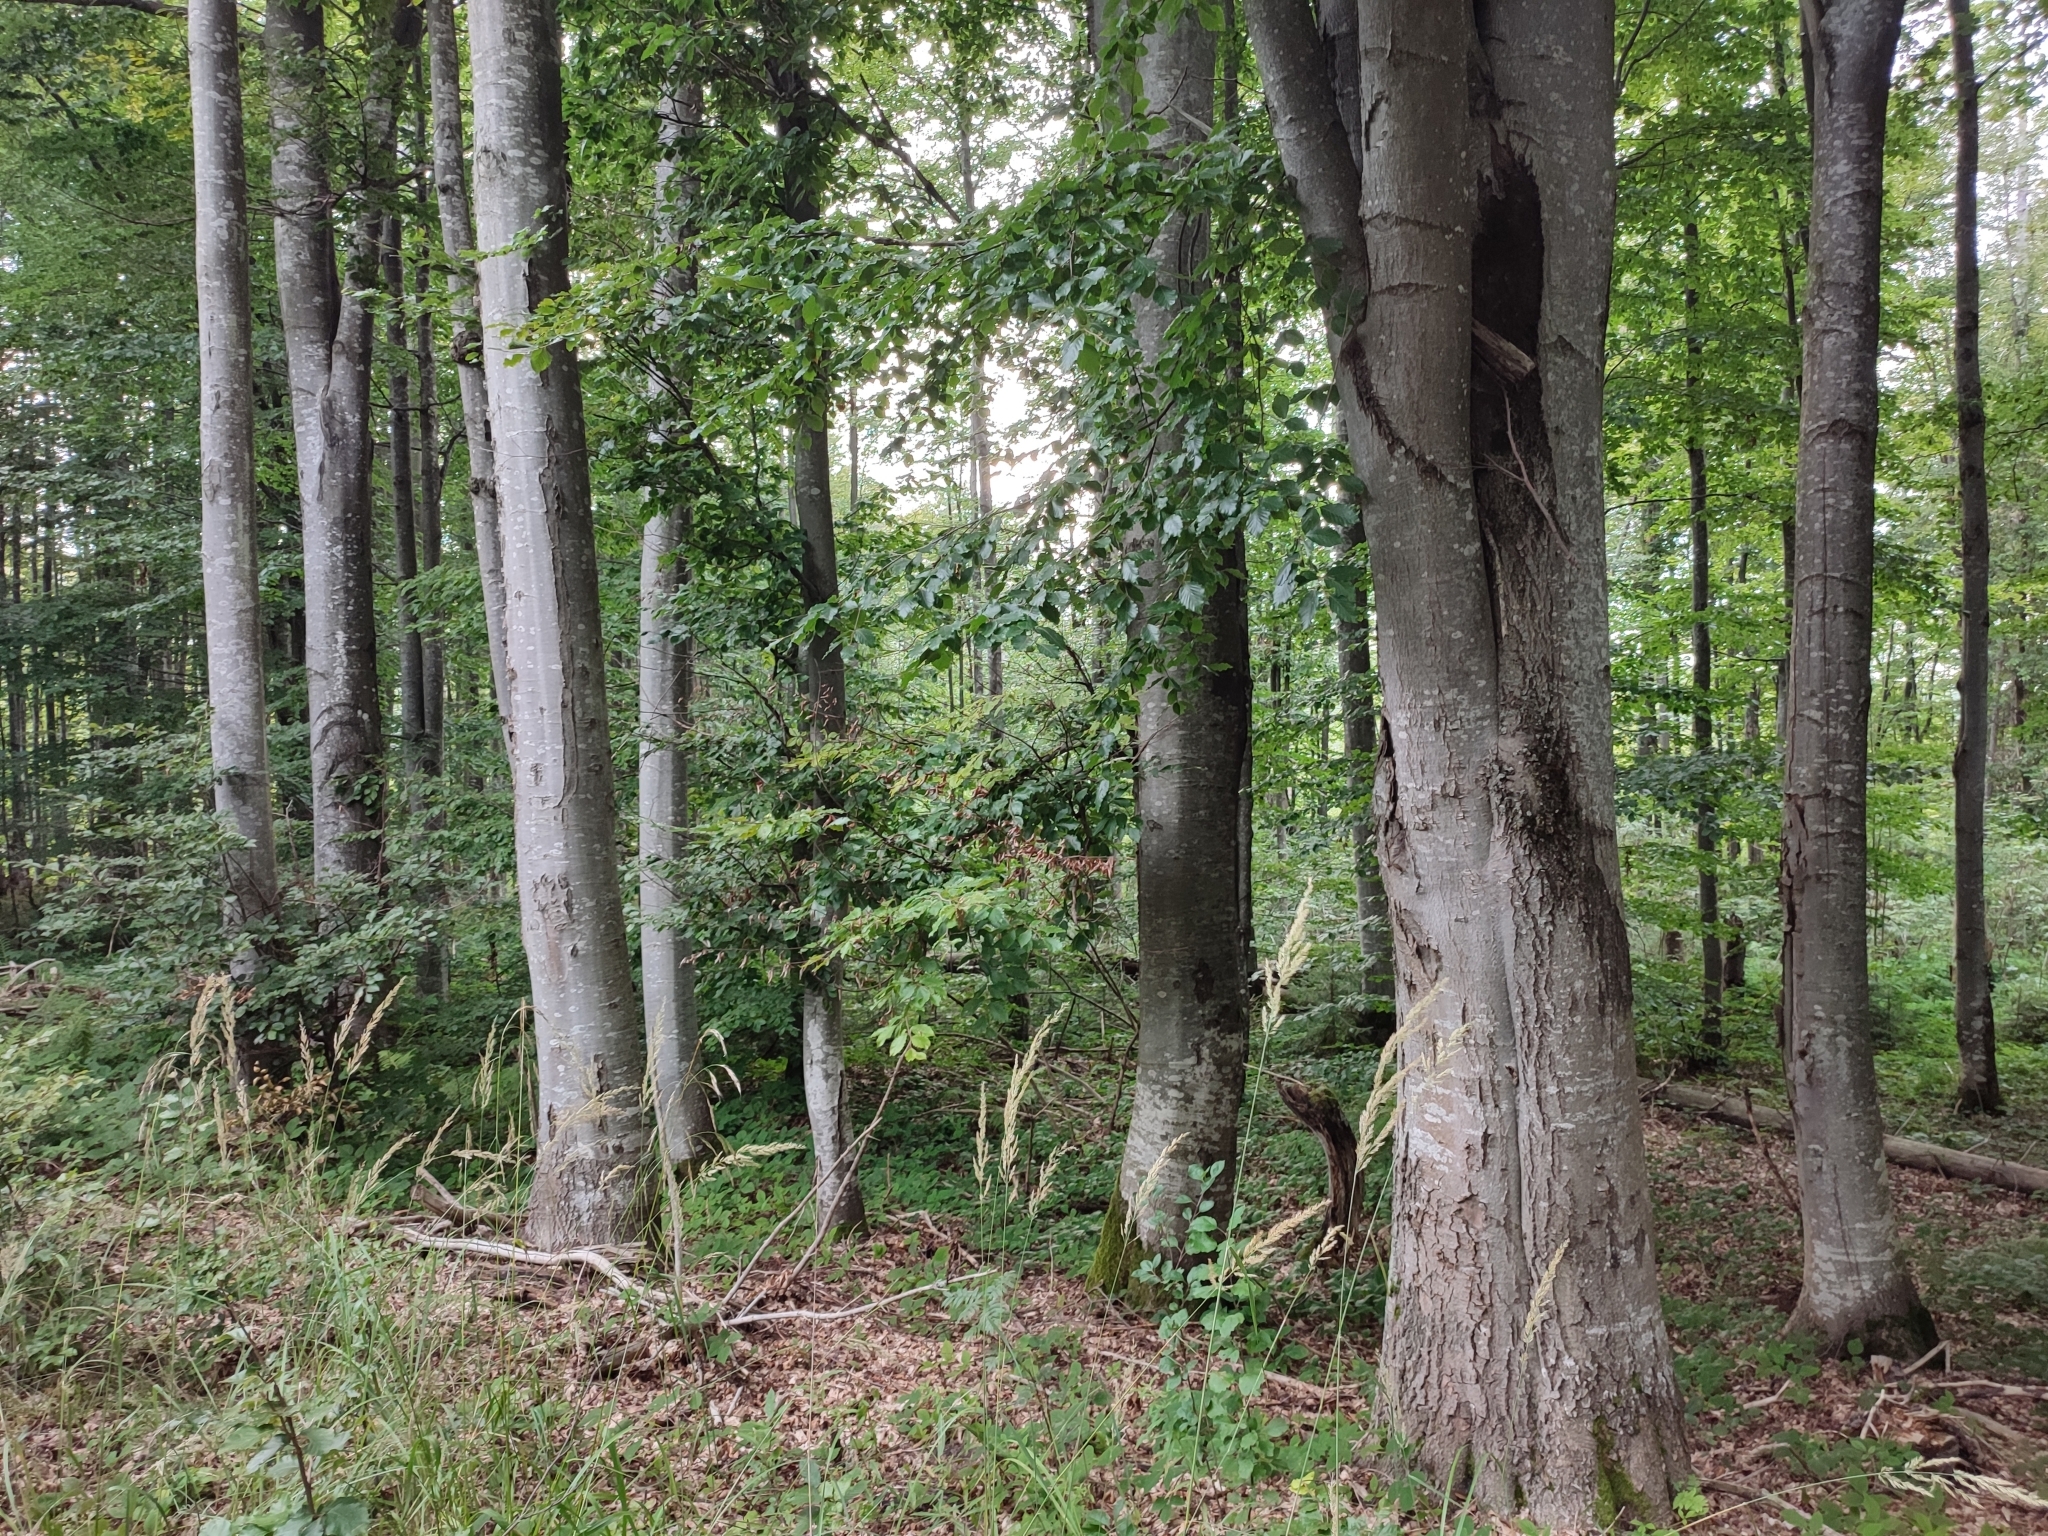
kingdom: Plantae
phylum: Tracheophyta
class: Magnoliopsida
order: Fagales
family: Fagaceae
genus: Fagus
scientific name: Fagus sylvatica
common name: Beech
